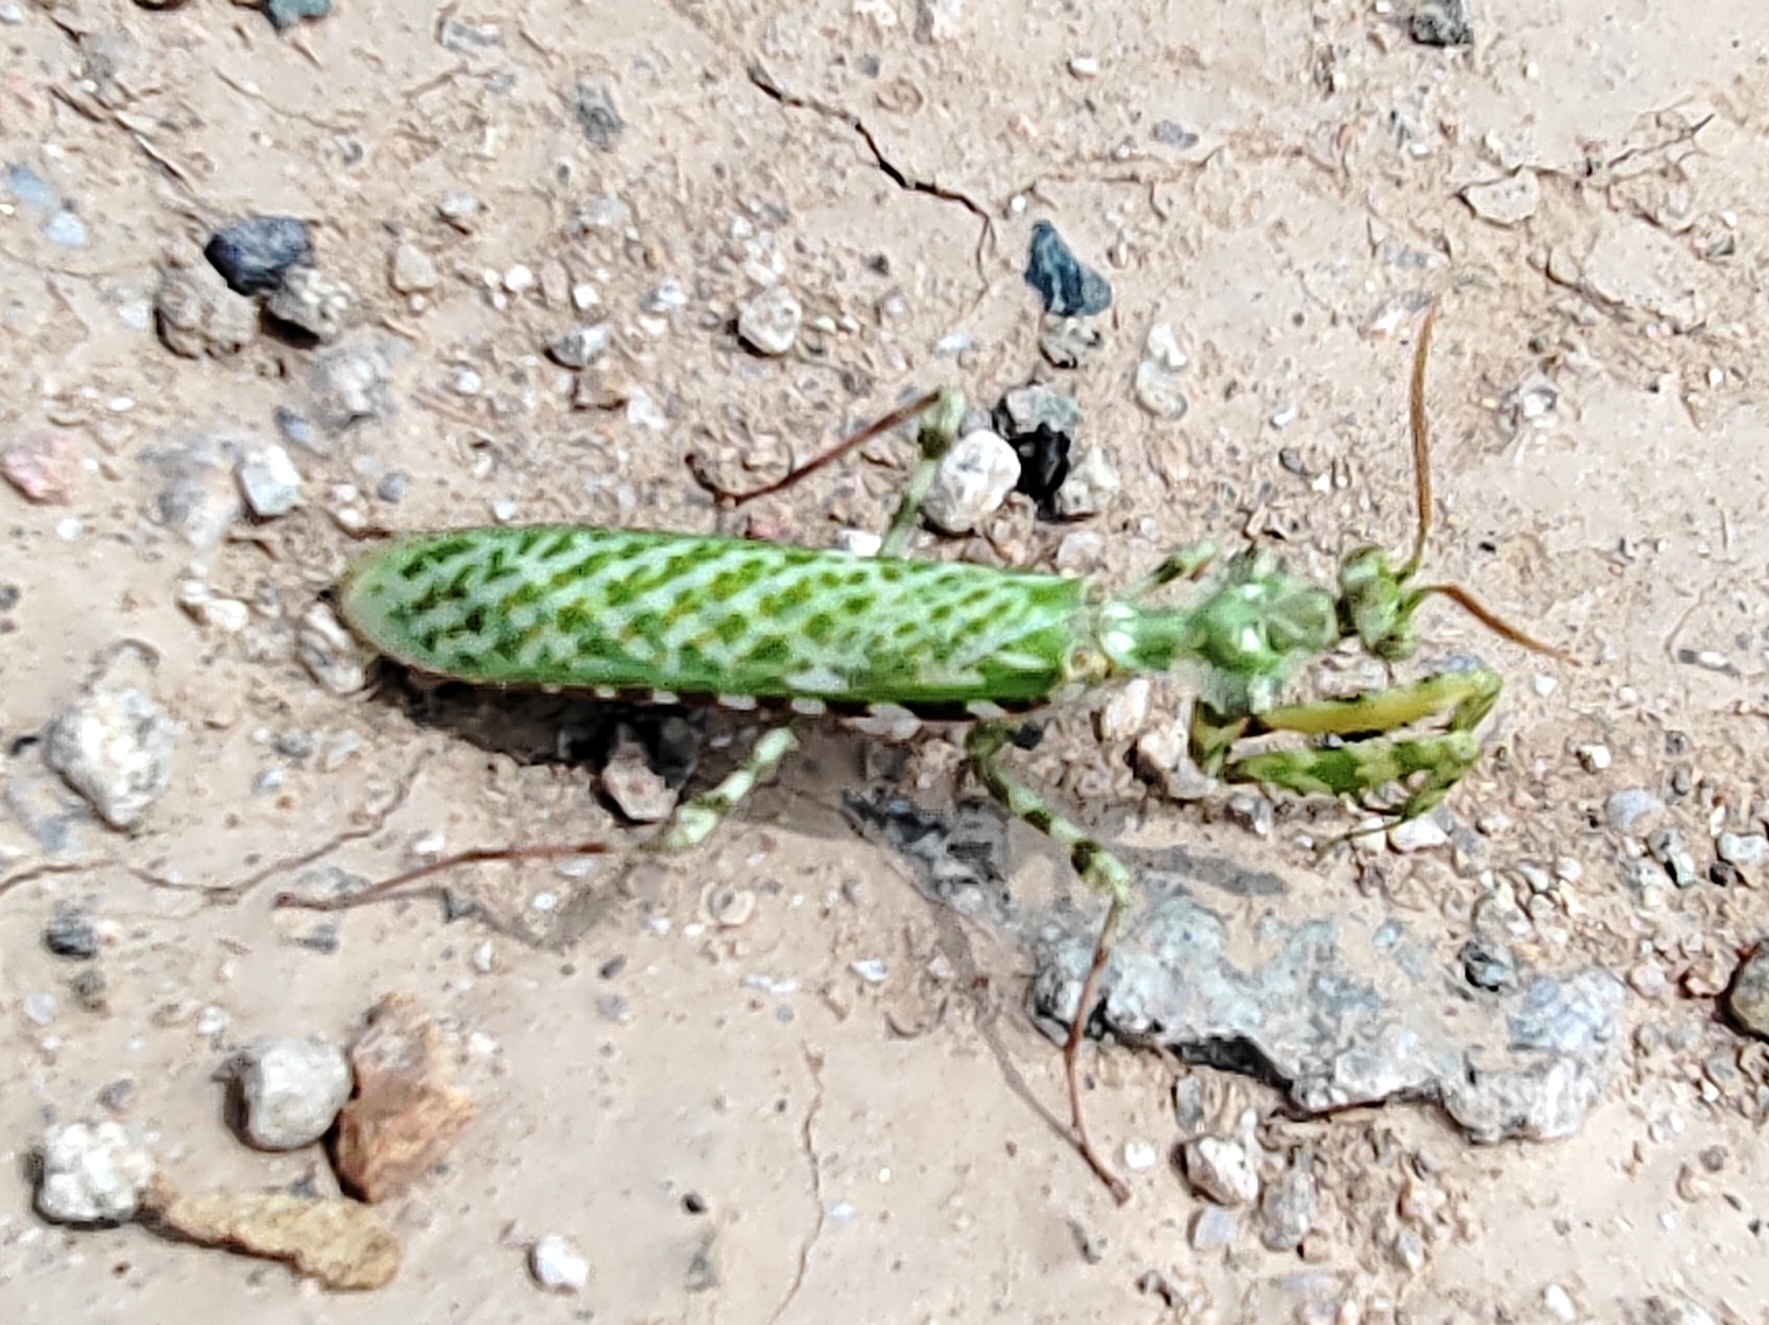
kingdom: Animalia
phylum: Arthropoda
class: Insecta
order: Mantodea
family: Empusidae
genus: Blepharopsis
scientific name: Blepharopsis mendica
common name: Devil's flower mantis
